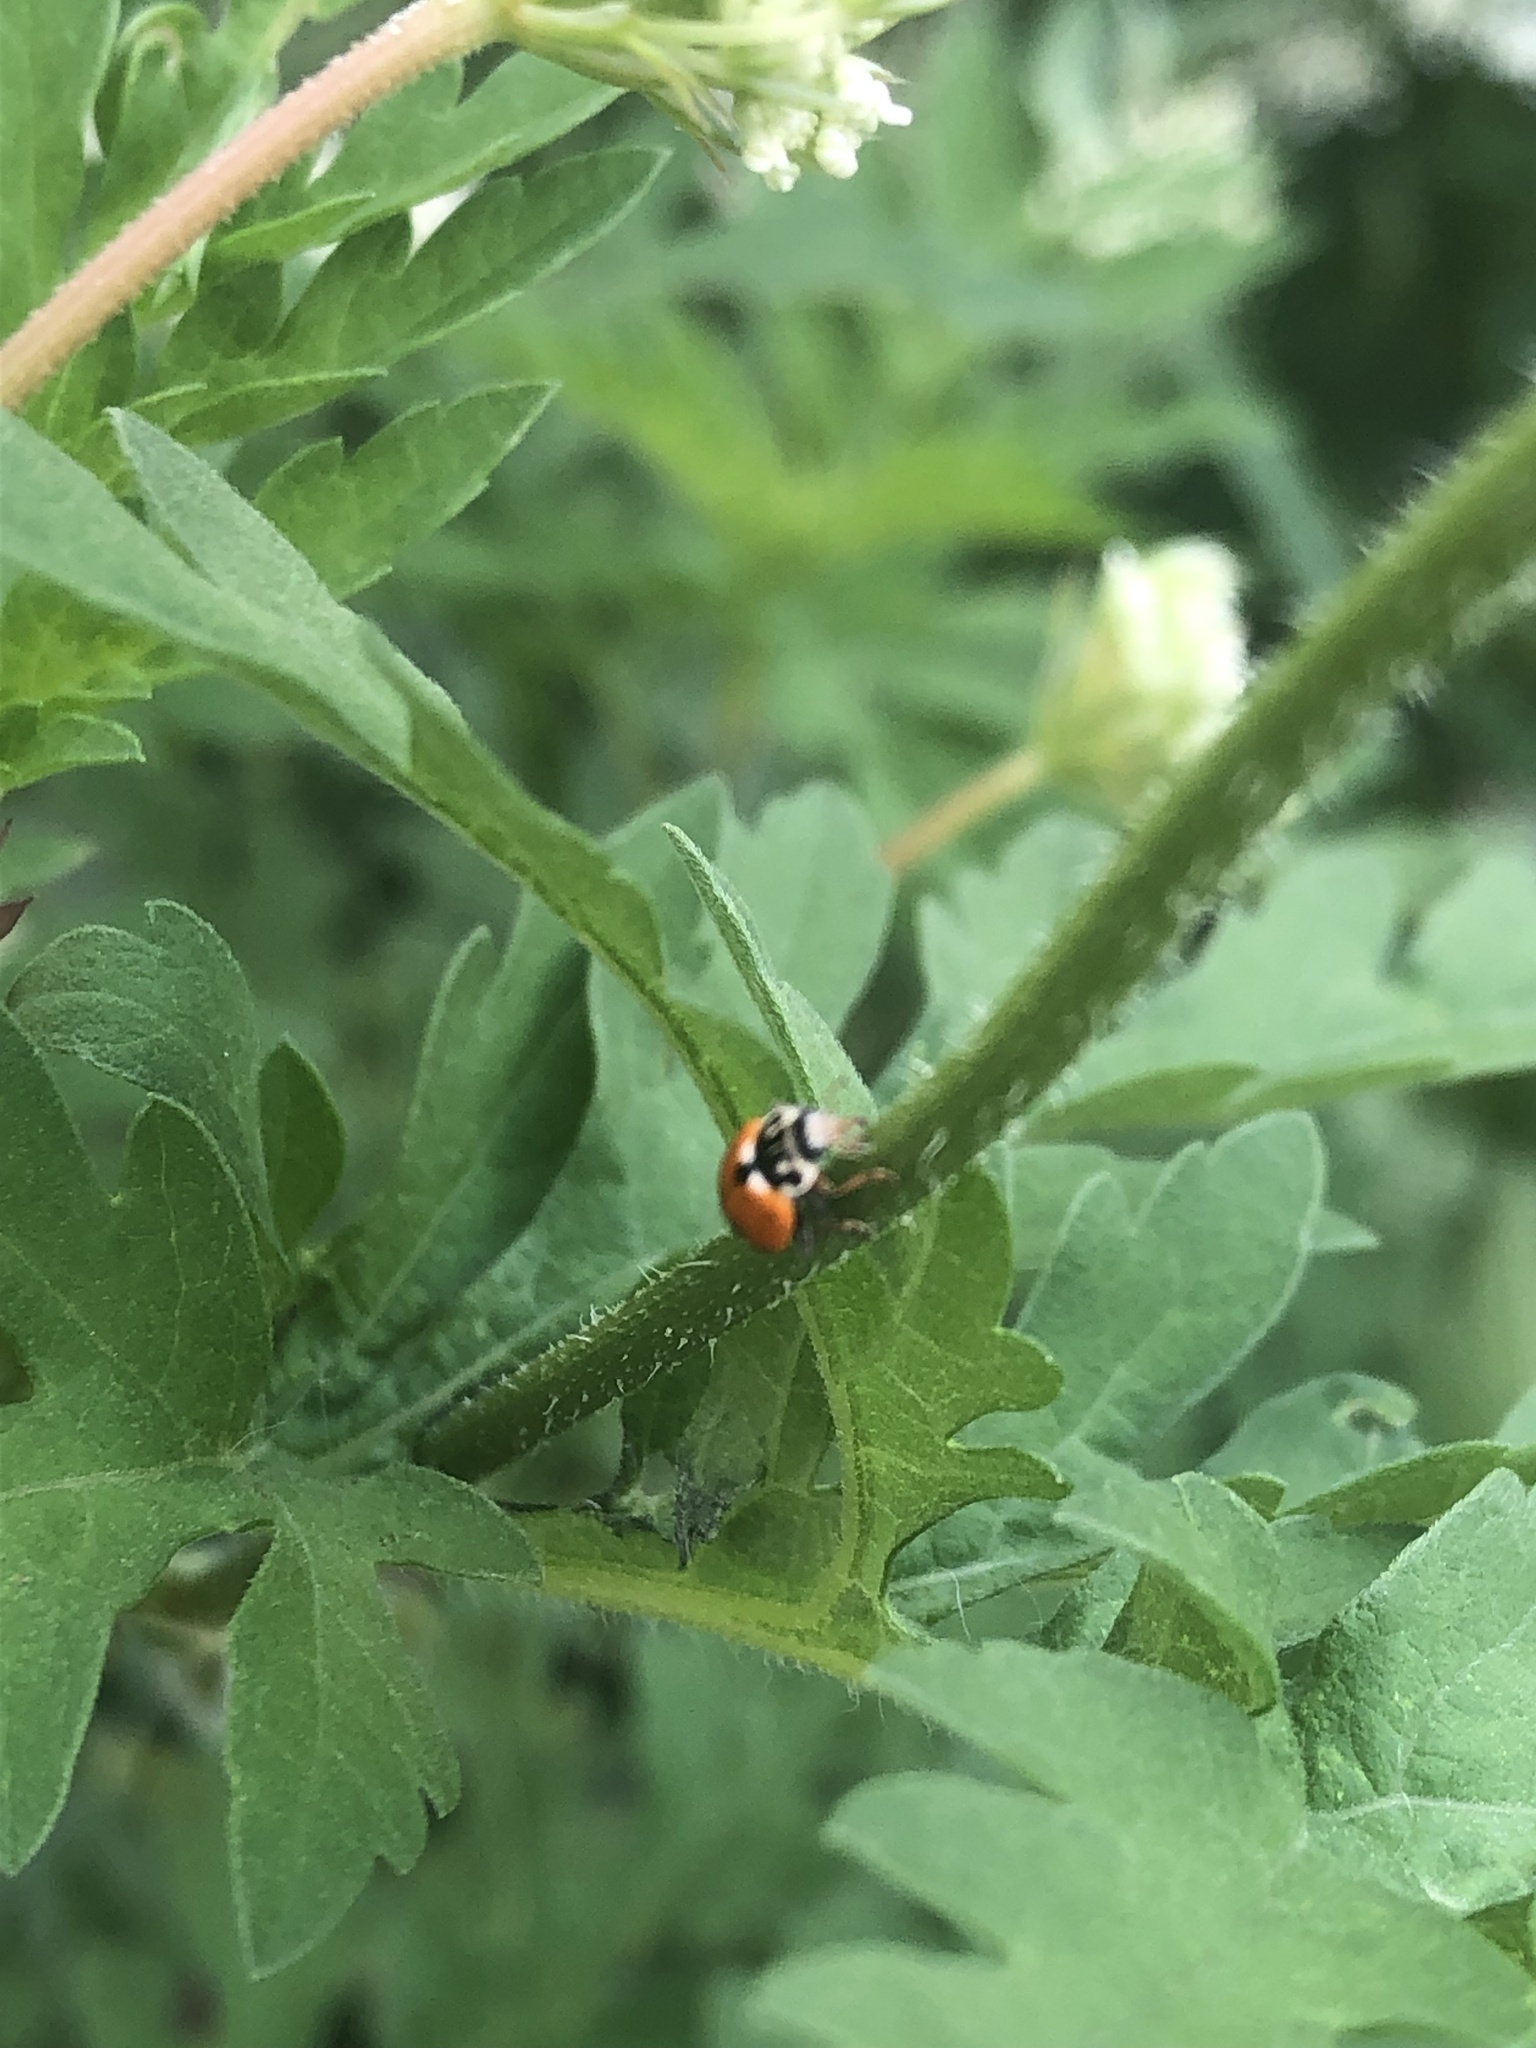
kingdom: Animalia
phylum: Arthropoda
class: Insecta
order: Coleoptera
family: Coccinellidae
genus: Hippodamia
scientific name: Hippodamia variegata
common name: Ladybird beetle
